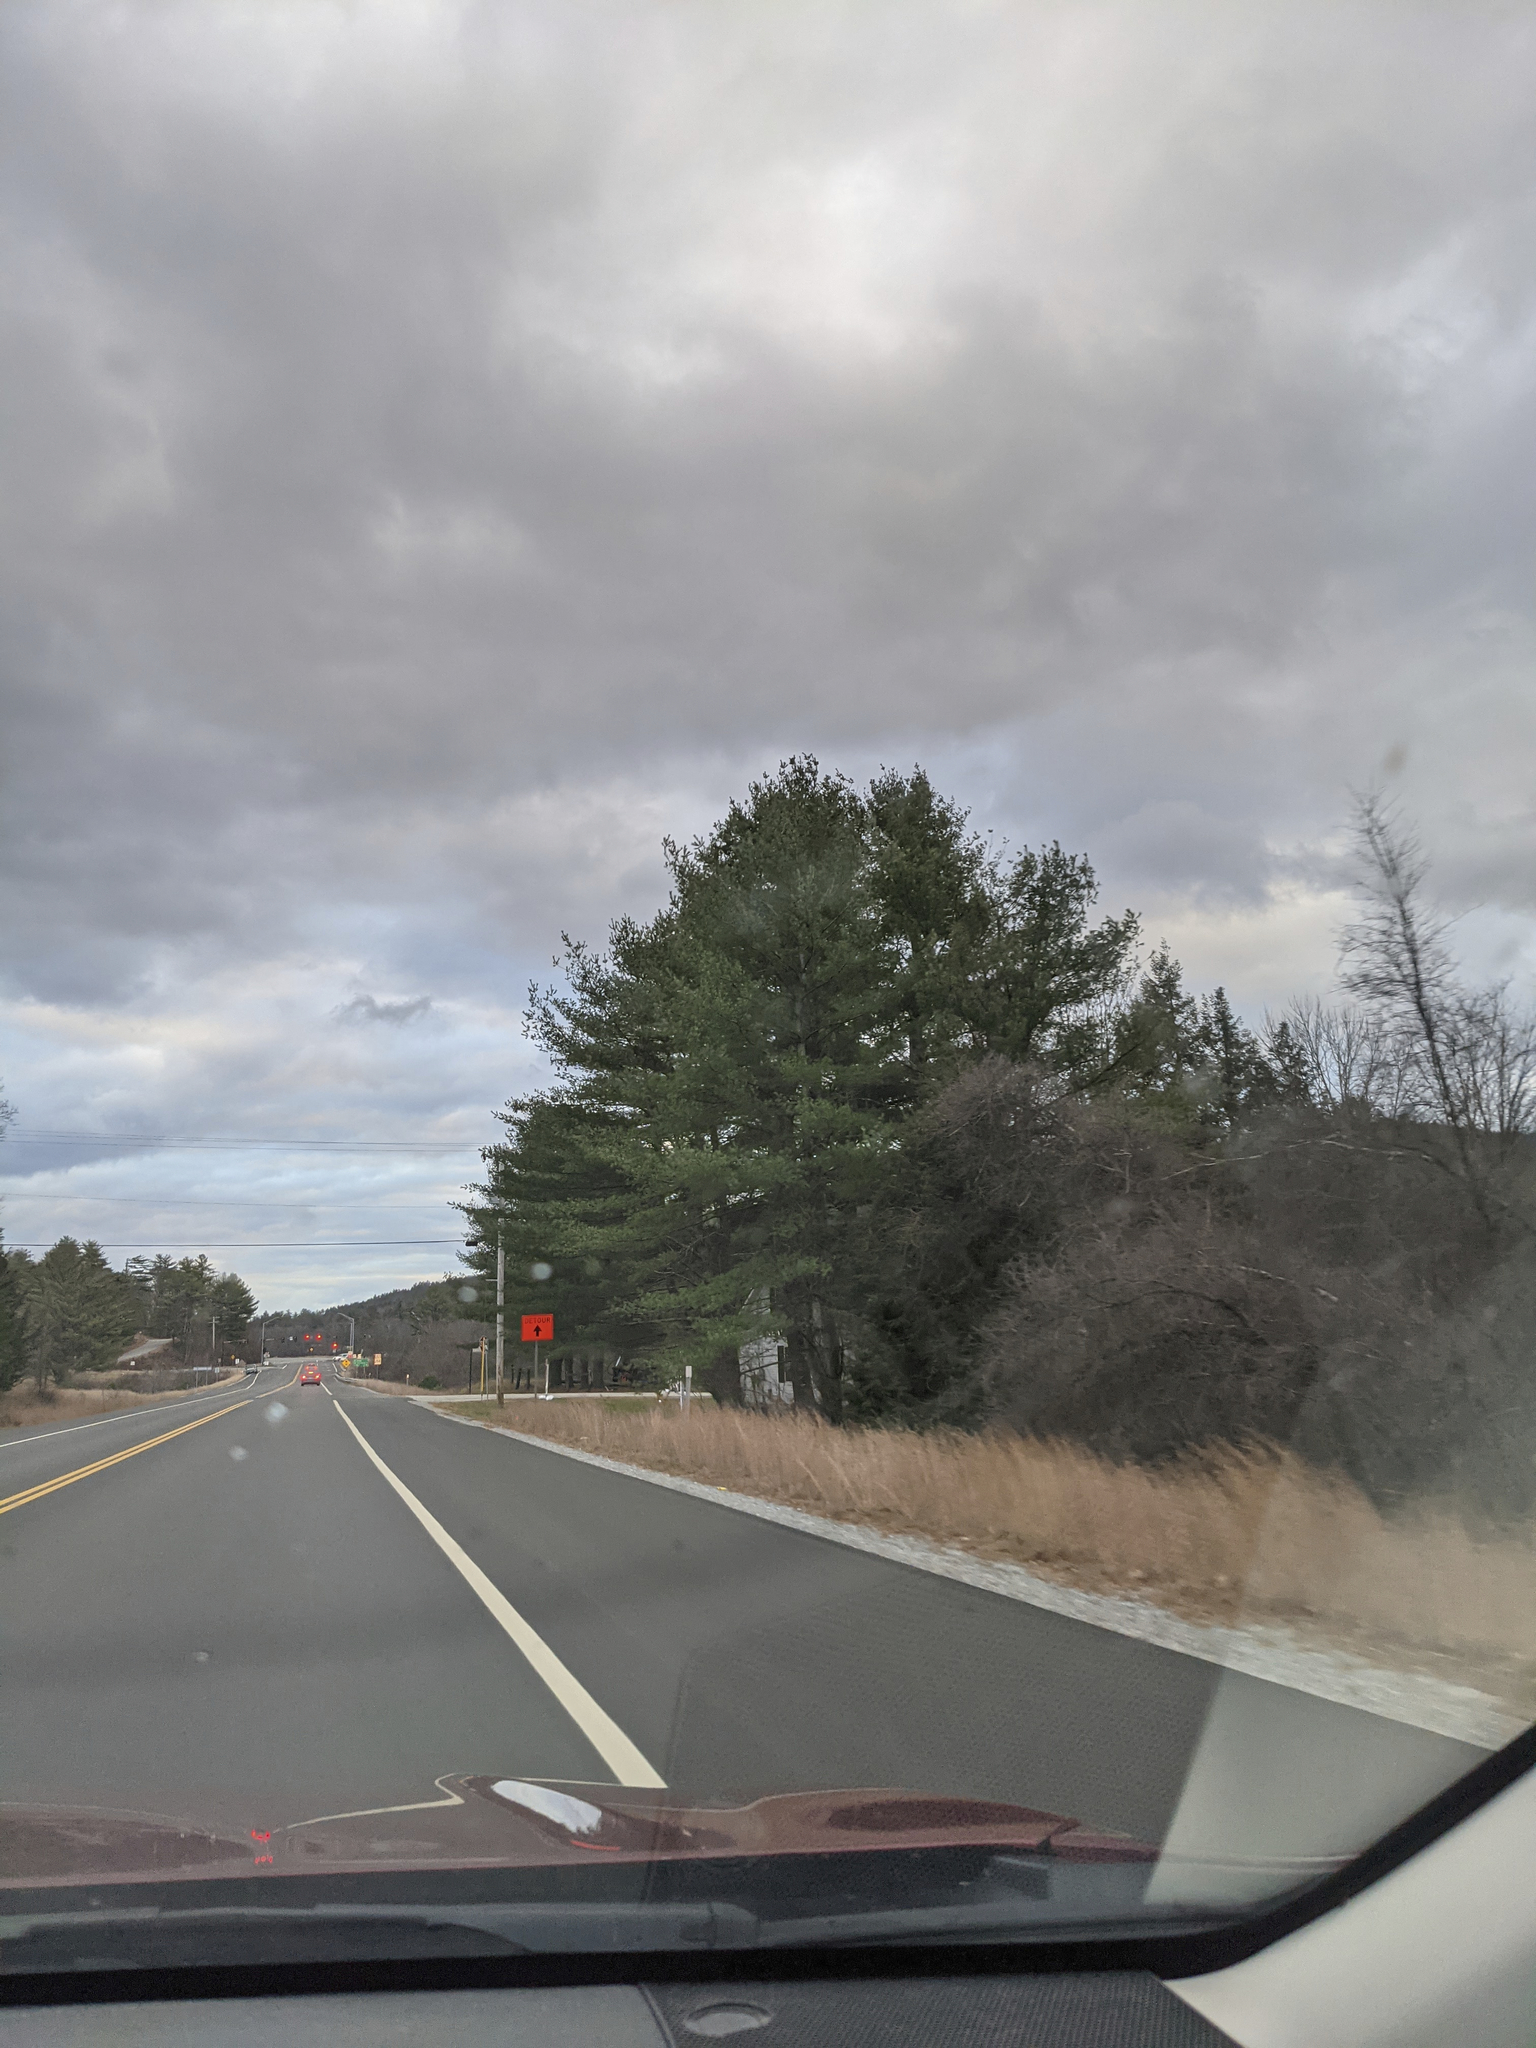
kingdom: Plantae
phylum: Tracheophyta
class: Pinopsida
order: Pinales
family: Pinaceae
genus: Pinus
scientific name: Pinus strobus
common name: Weymouth pine
